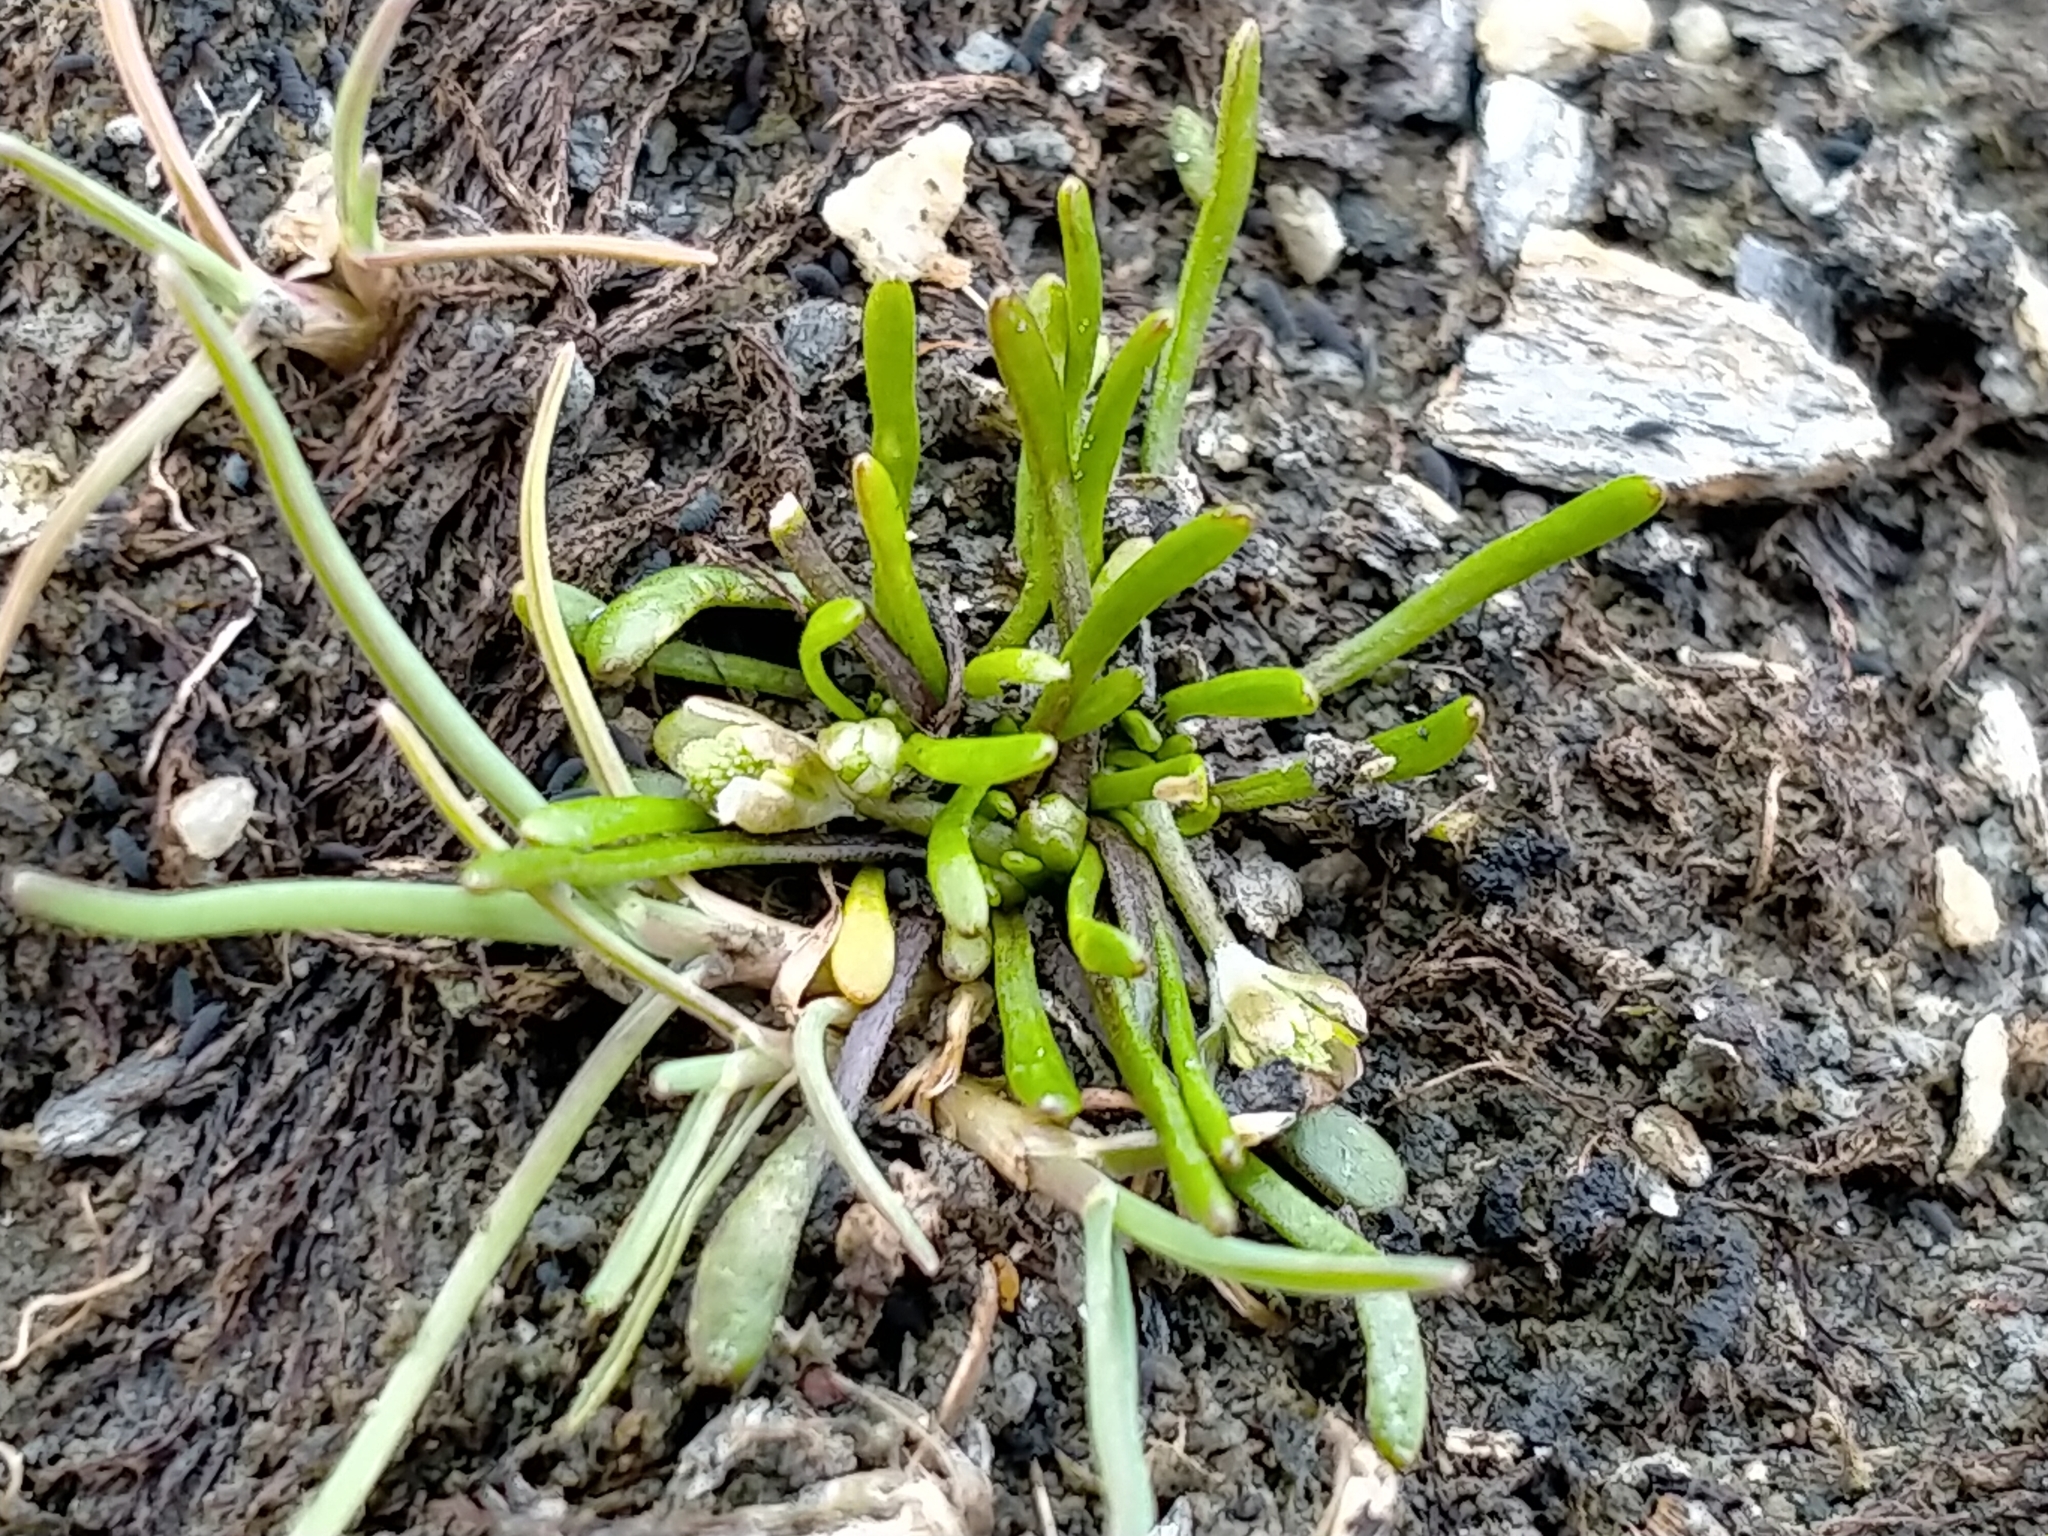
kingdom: Plantae
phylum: Tracheophyta
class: Magnoliopsida
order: Ranunculales
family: Ranunculaceae
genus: Myosurus
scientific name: Myosurus minimus
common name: Mousetail
